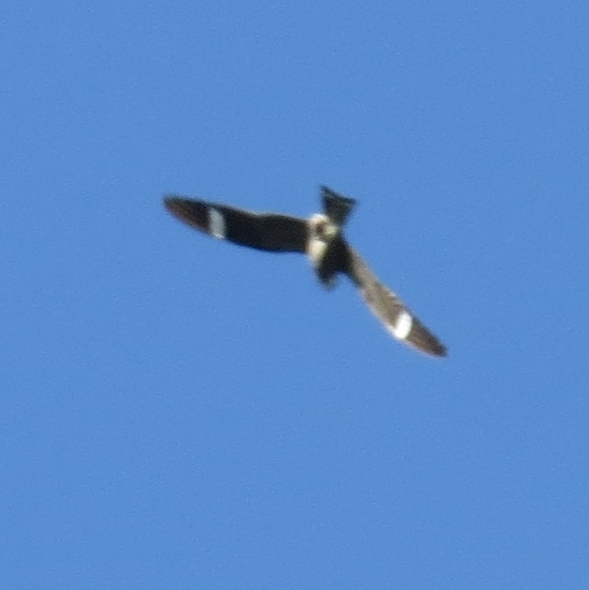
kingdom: Animalia
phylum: Chordata
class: Aves
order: Caprimulgiformes
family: Caprimulgidae
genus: Chordeiles
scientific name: Chordeiles minor
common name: Common nighthawk
